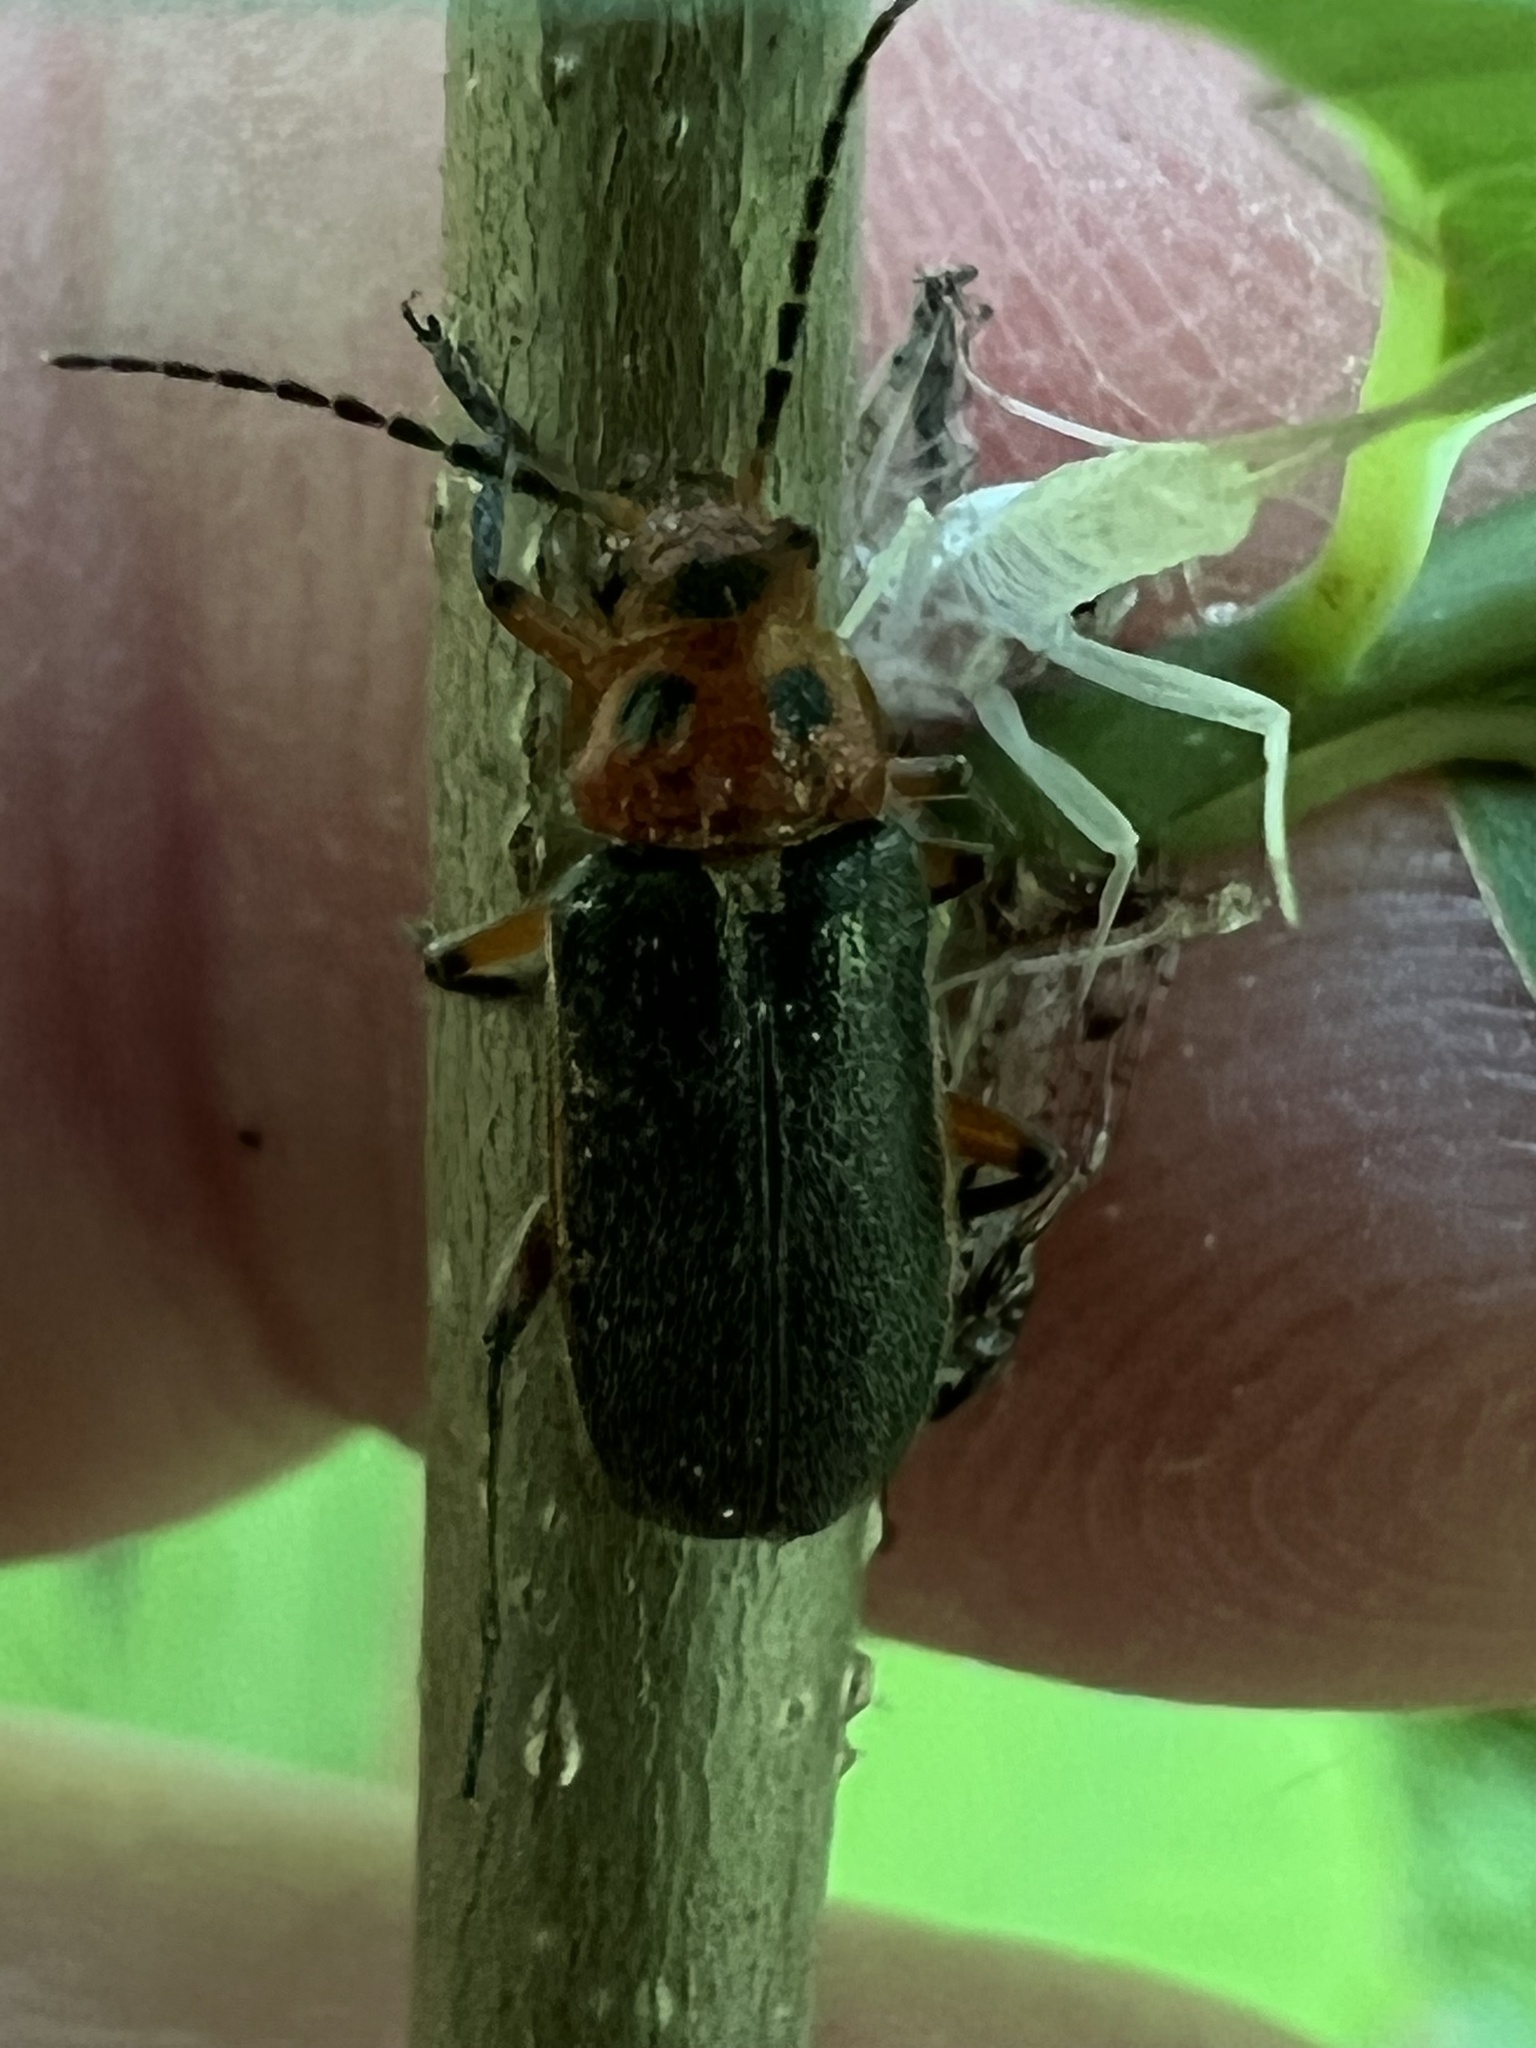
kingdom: Animalia
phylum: Arthropoda
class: Insecta
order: Coleoptera
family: Cantharidae
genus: Atalantycha
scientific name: Atalantycha bilineata
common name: Two-lined leatherwing
